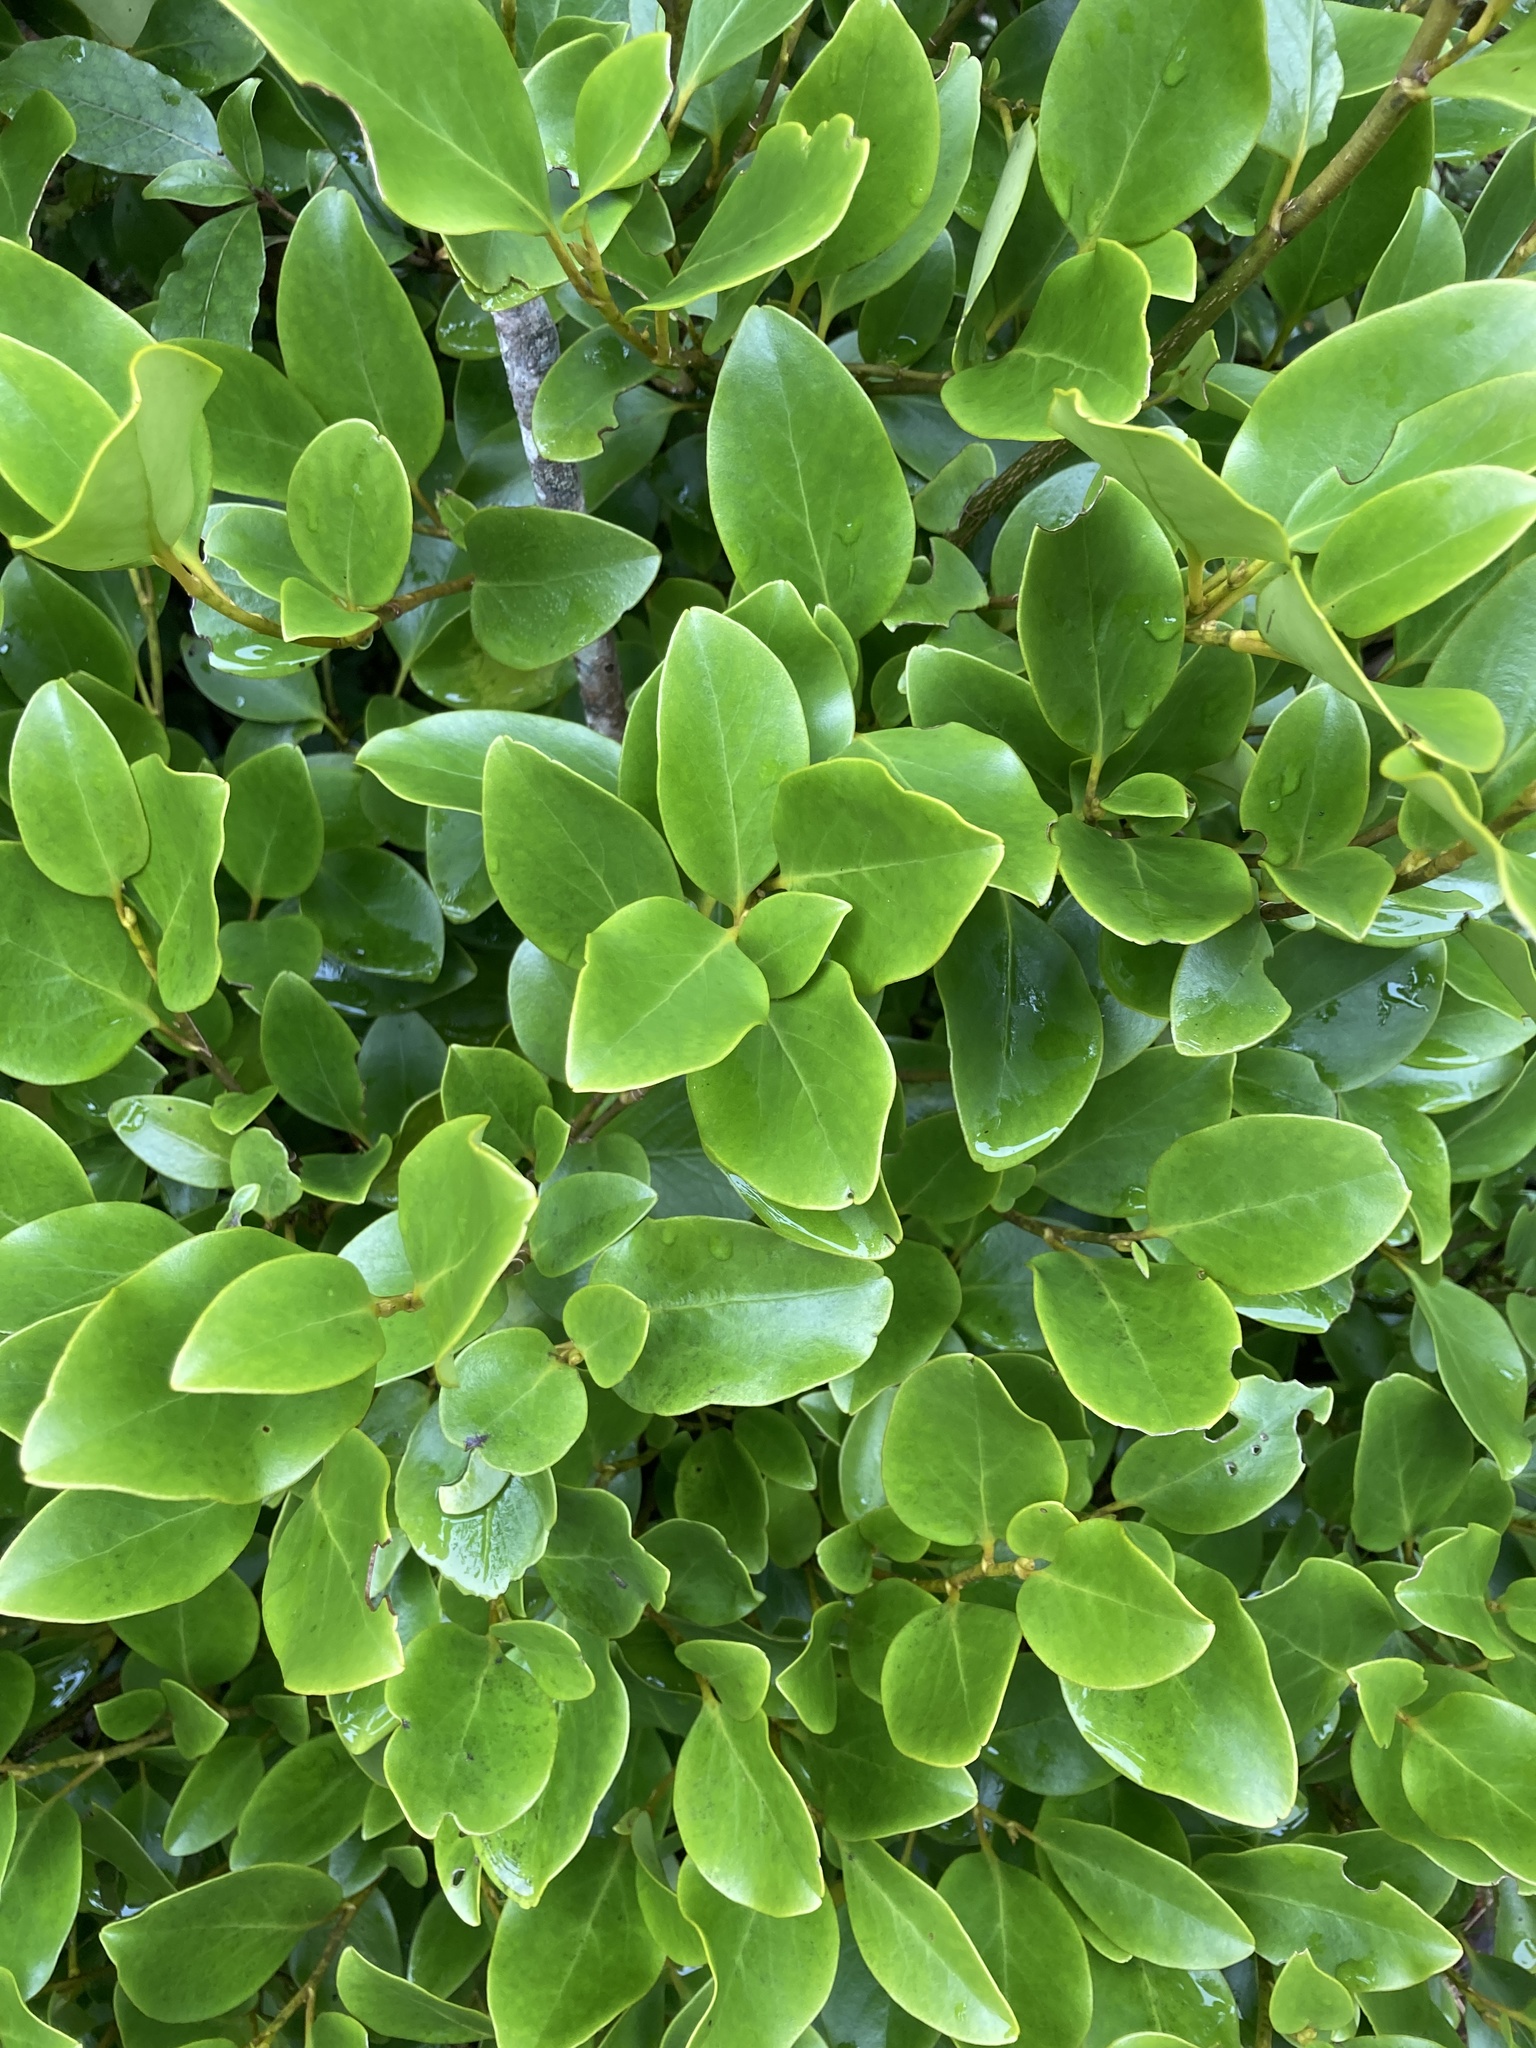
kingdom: Plantae
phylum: Tracheophyta
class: Magnoliopsida
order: Apiales
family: Griseliniaceae
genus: Griselinia
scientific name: Griselinia littoralis
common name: New zealand broadleaf
